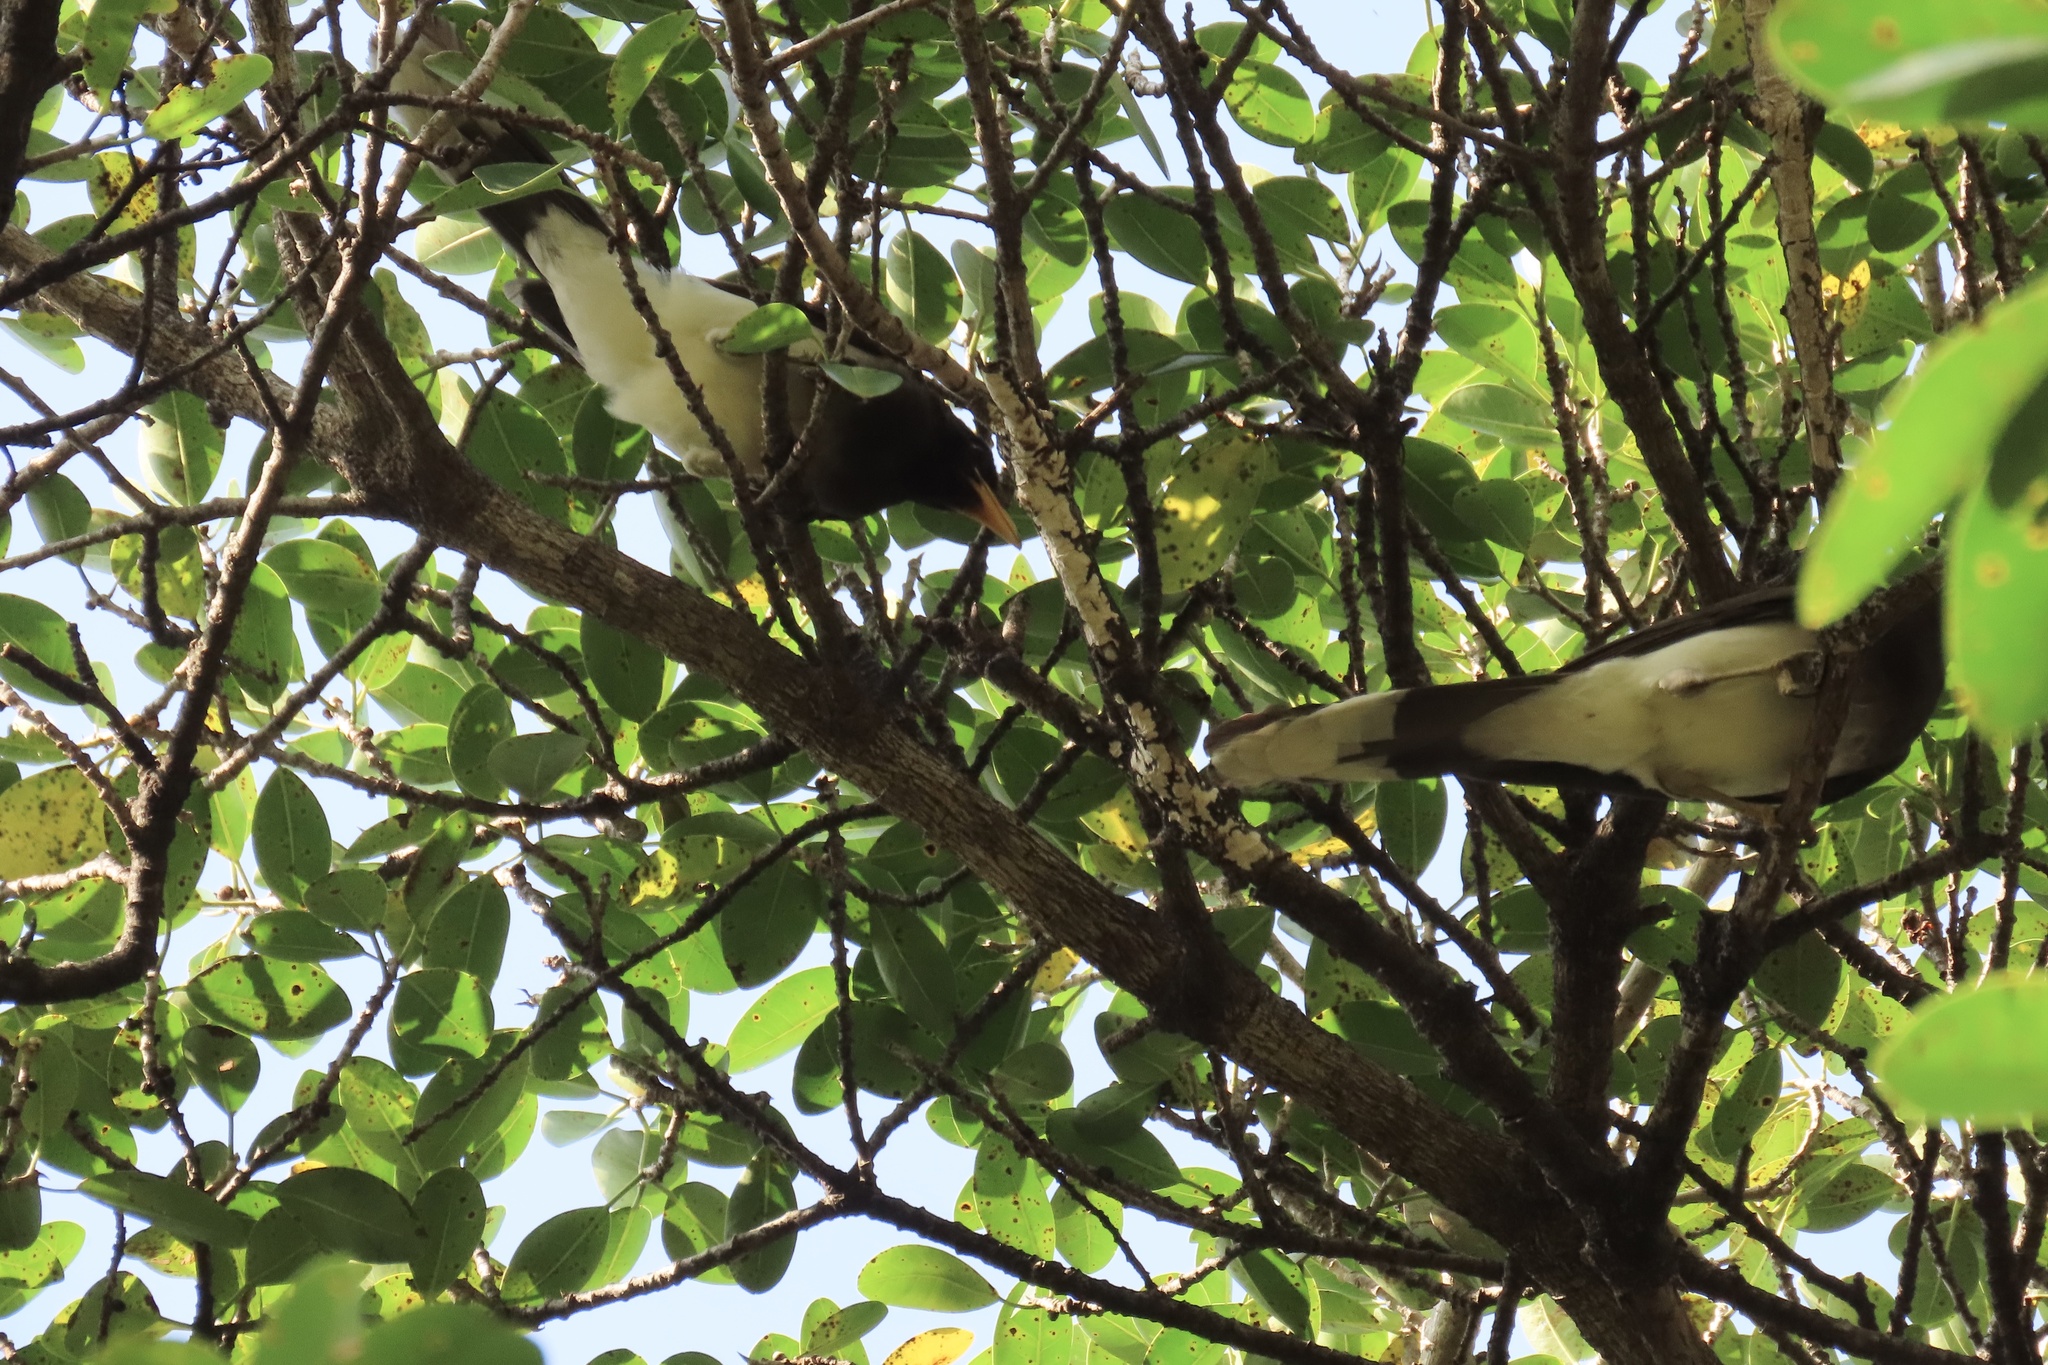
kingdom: Animalia
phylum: Chordata
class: Aves
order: Passeriformes
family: Corvidae
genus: Psilorhinus
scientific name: Psilorhinus morio
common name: Brown jay
